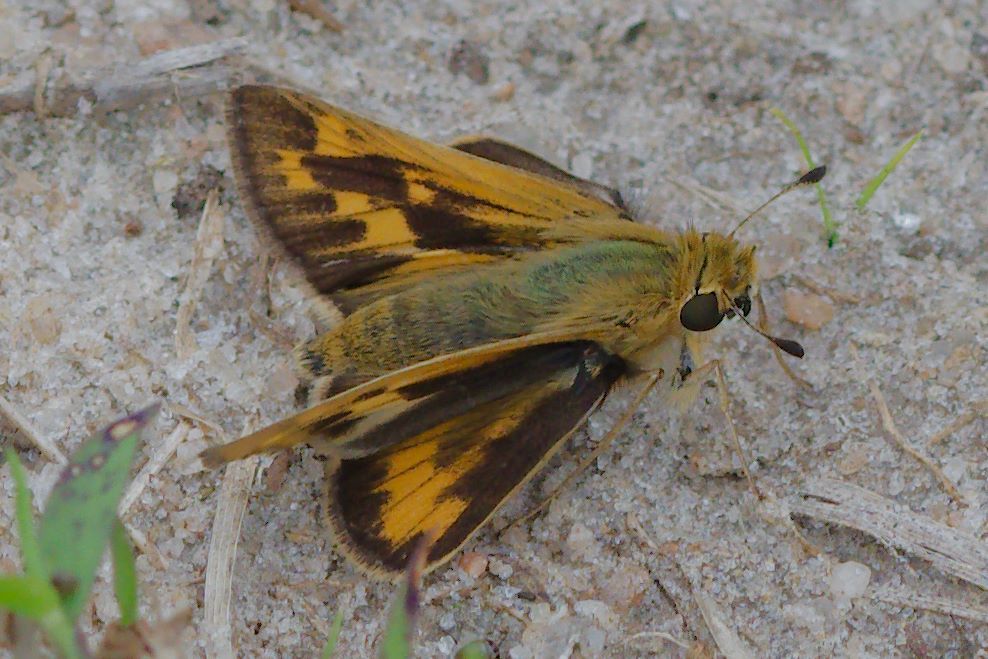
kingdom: Animalia
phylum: Arthropoda
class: Insecta
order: Lepidoptera
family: Hesperiidae
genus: Hylephila
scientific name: Hylephila phyleus
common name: Fiery skipper
